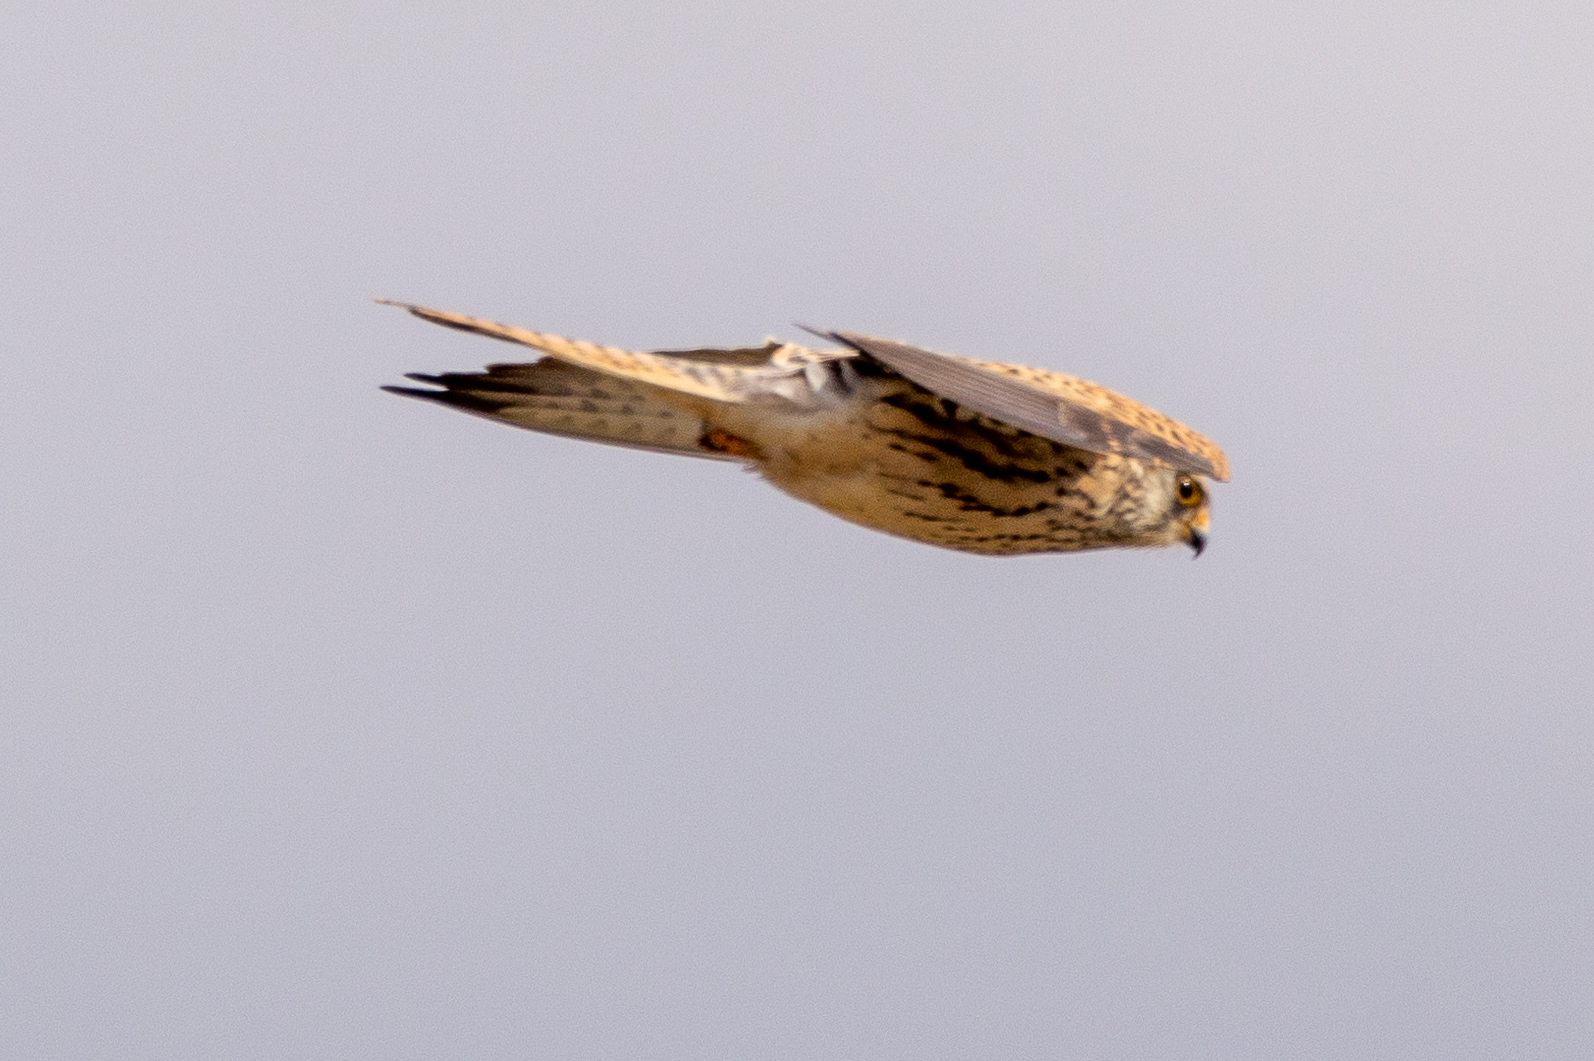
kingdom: Animalia
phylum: Chordata
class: Aves
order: Falconiformes
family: Falconidae
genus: Falco
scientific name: Falco tinnunculus
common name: Common kestrel
